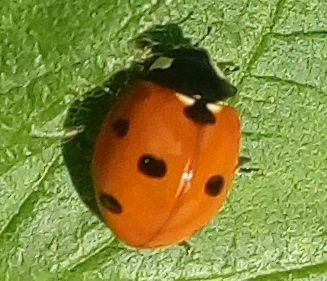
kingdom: Animalia
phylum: Arthropoda
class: Insecta
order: Coleoptera
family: Coccinellidae
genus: Coccinella
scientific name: Coccinella septempunctata
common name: Sevenspotted lady beetle
